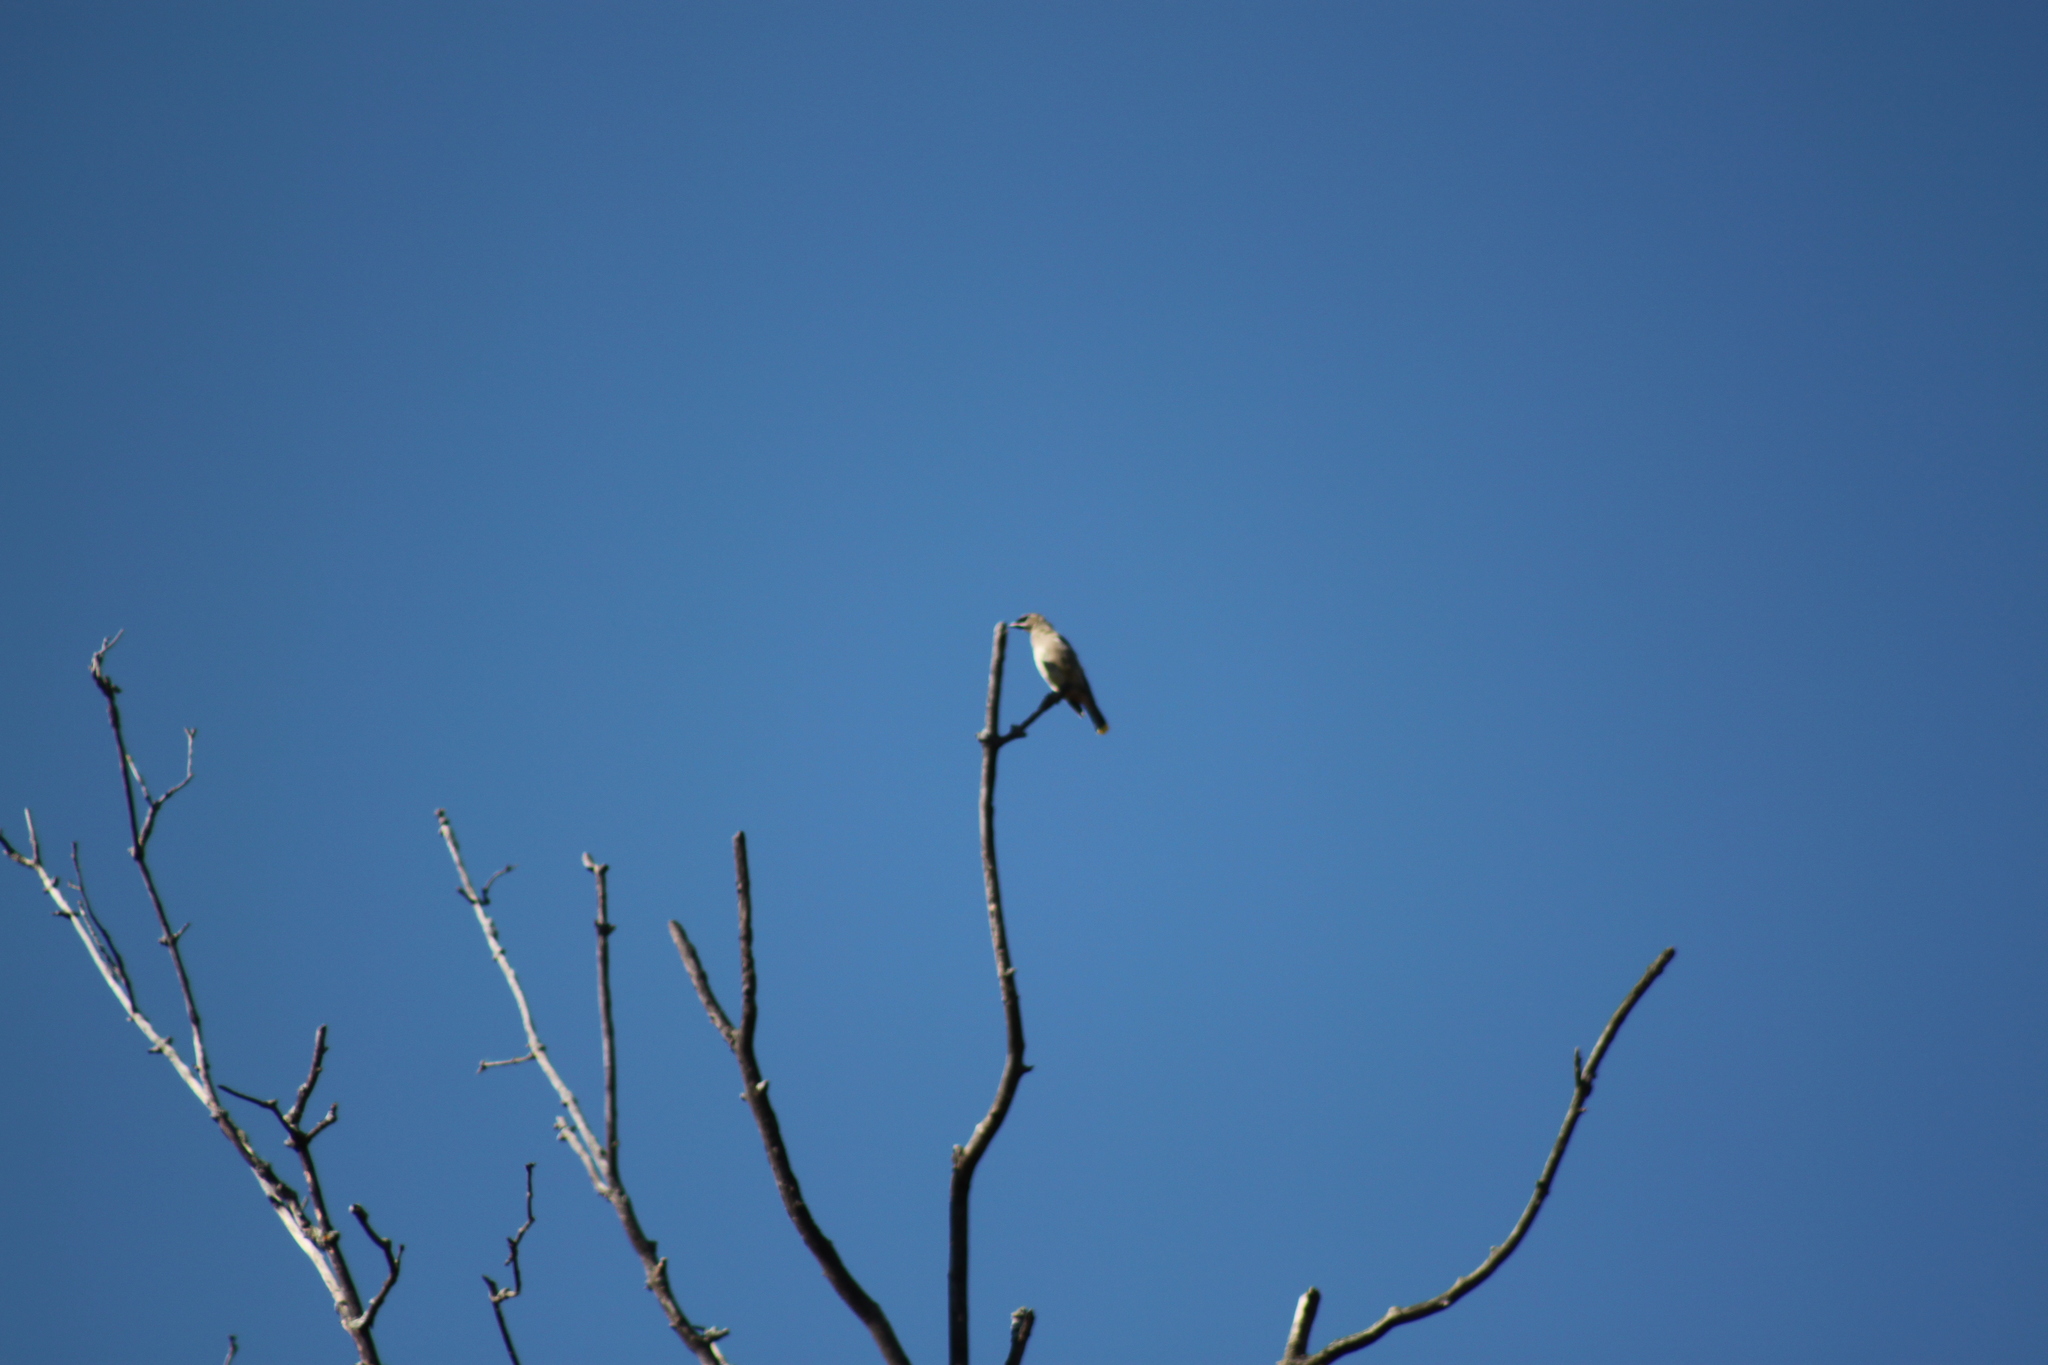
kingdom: Animalia
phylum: Chordata
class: Aves
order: Passeriformes
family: Bombycillidae
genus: Bombycilla
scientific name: Bombycilla cedrorum
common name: Cedar waxwing
